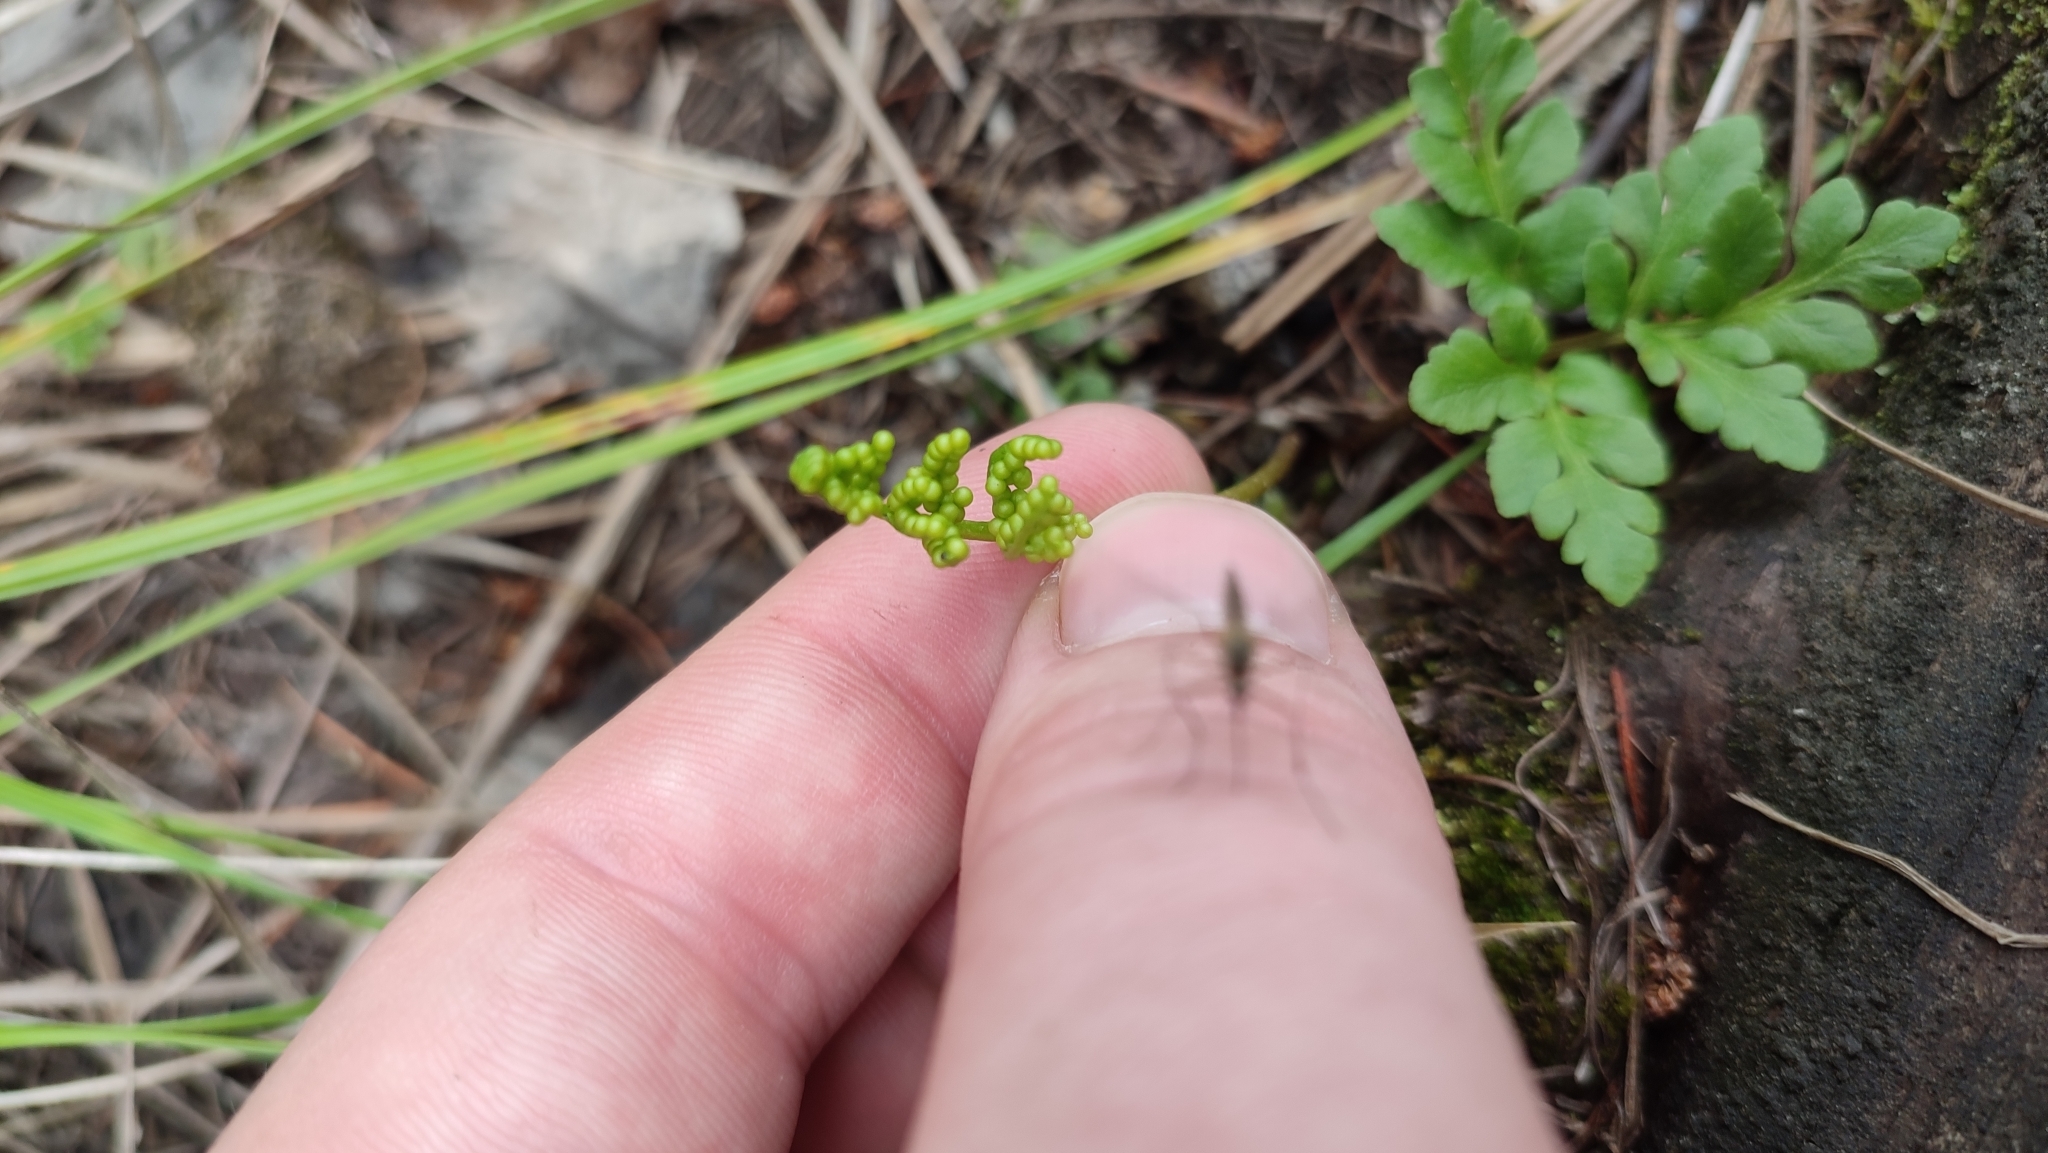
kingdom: Plantae
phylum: Tracheophyta
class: Polypodiopsida
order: Ophioglossales
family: Ophioglossaceae
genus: Sceptridium
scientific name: Sceptridium multifidum
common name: Leathery grape fern
